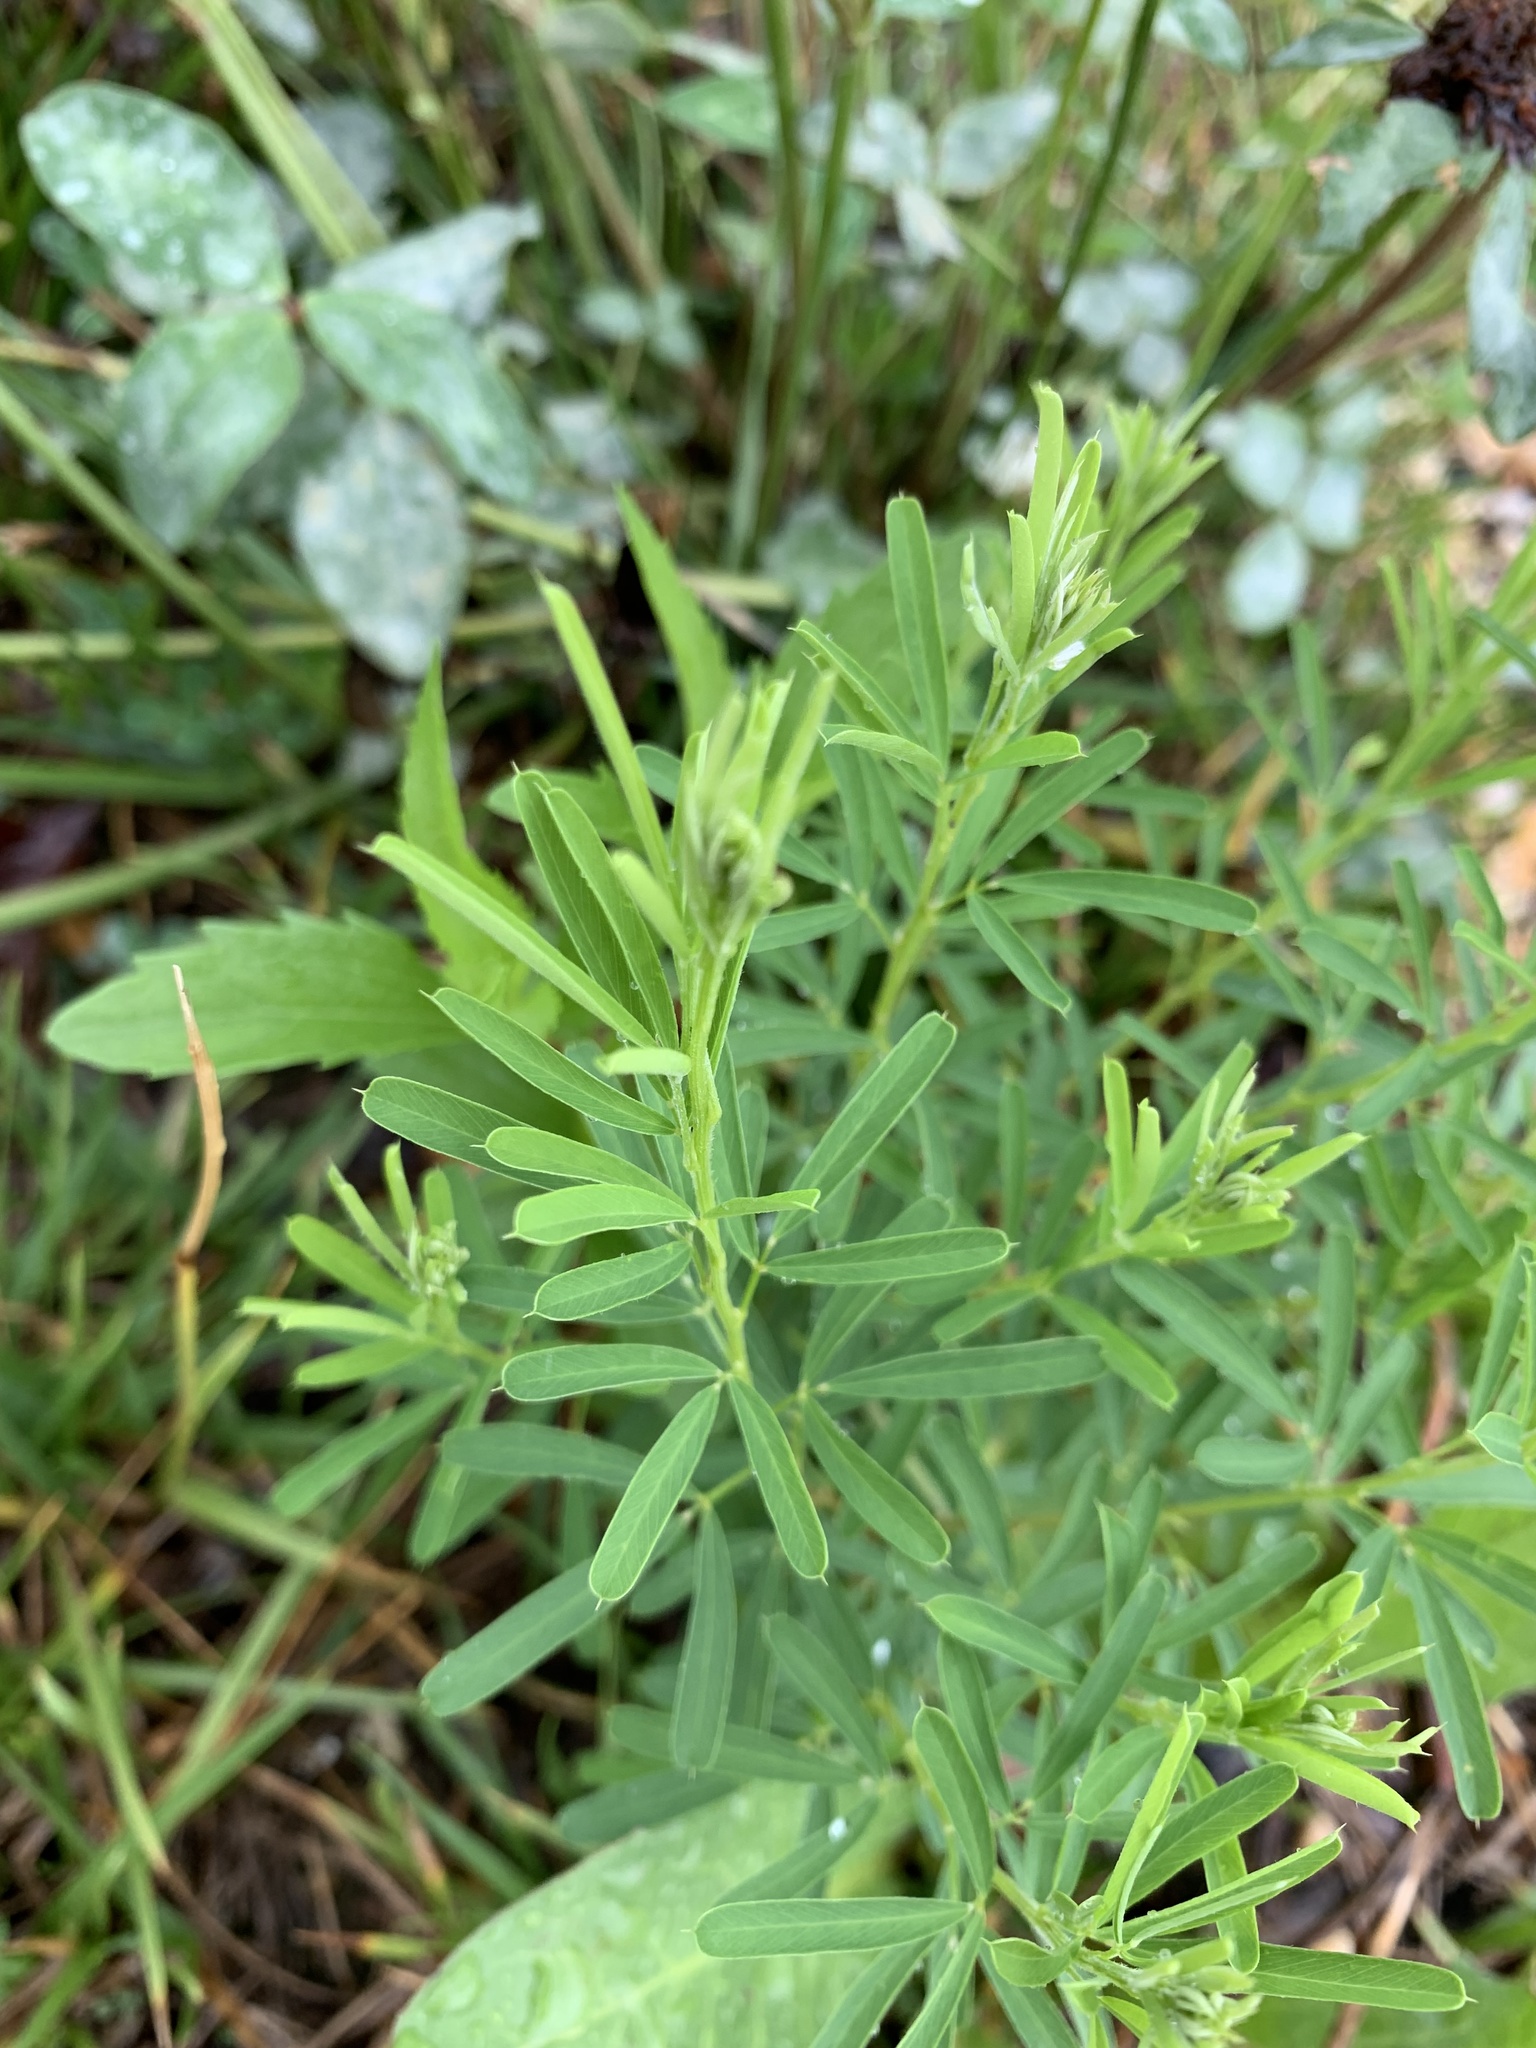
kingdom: Plantae
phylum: Tracheophyta
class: Magnoliopsida
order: Fabales
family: Fabaceae
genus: Lespedeza
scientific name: Lespedeza cuneata
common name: Chinese bush-clover
